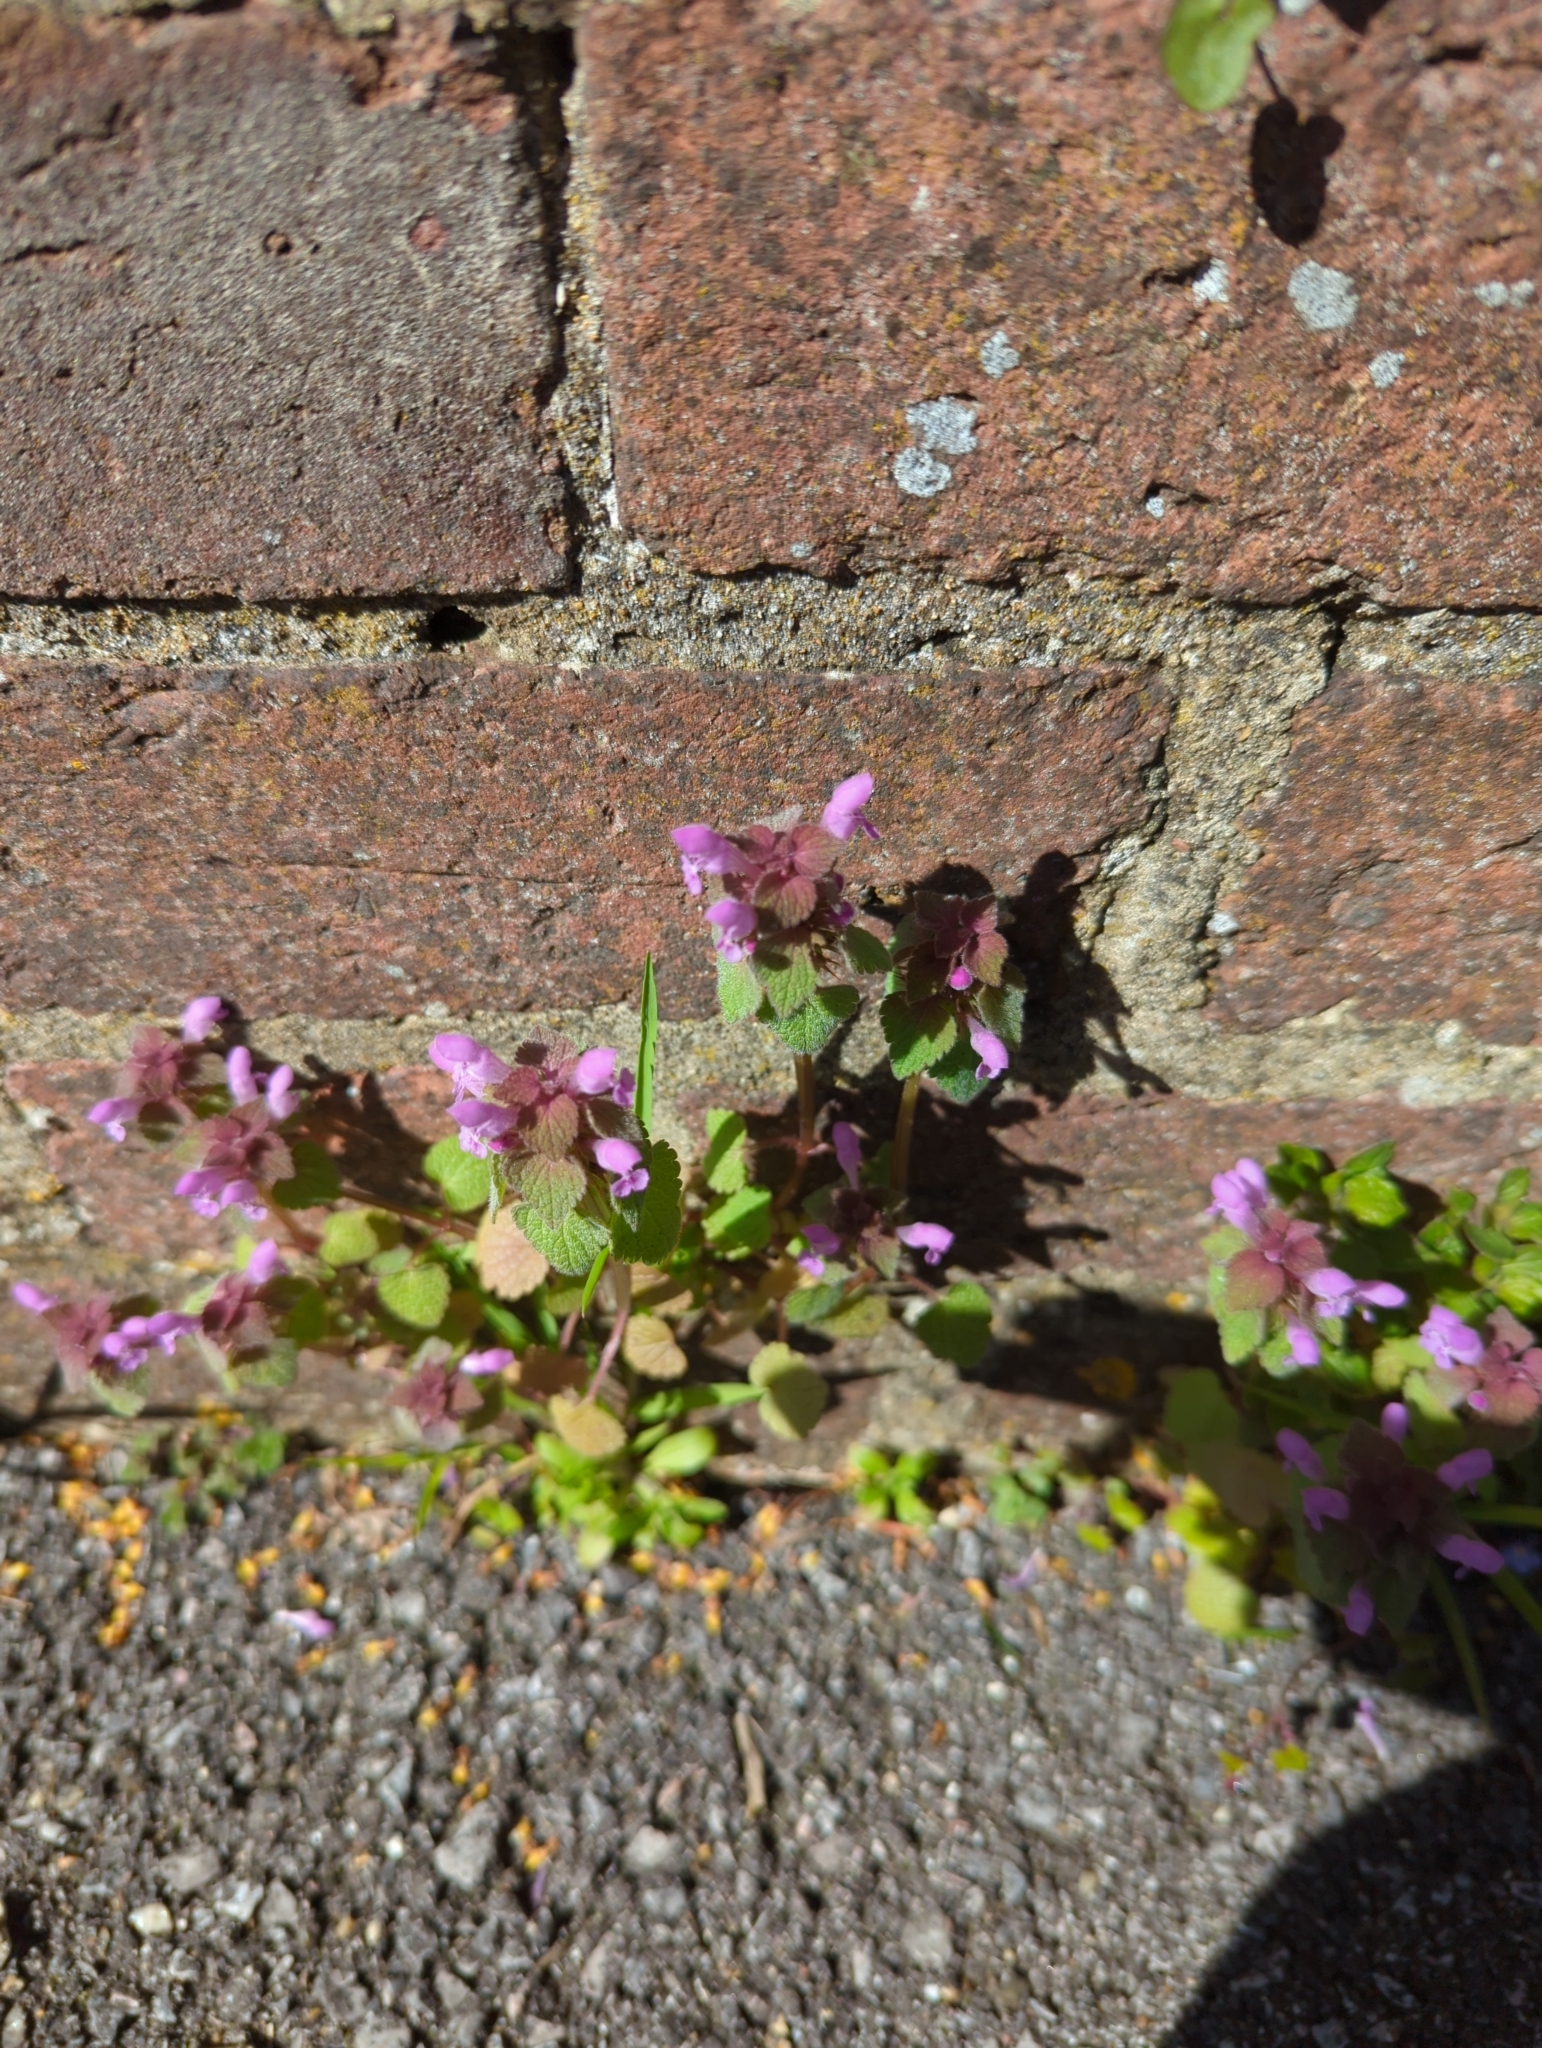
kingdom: Plantae
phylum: Tracheophyta
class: Magnoliopsida
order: Lamiales
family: Lamiaceae
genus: Lamium
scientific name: Lamium purpureum
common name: Red dead-nettle
